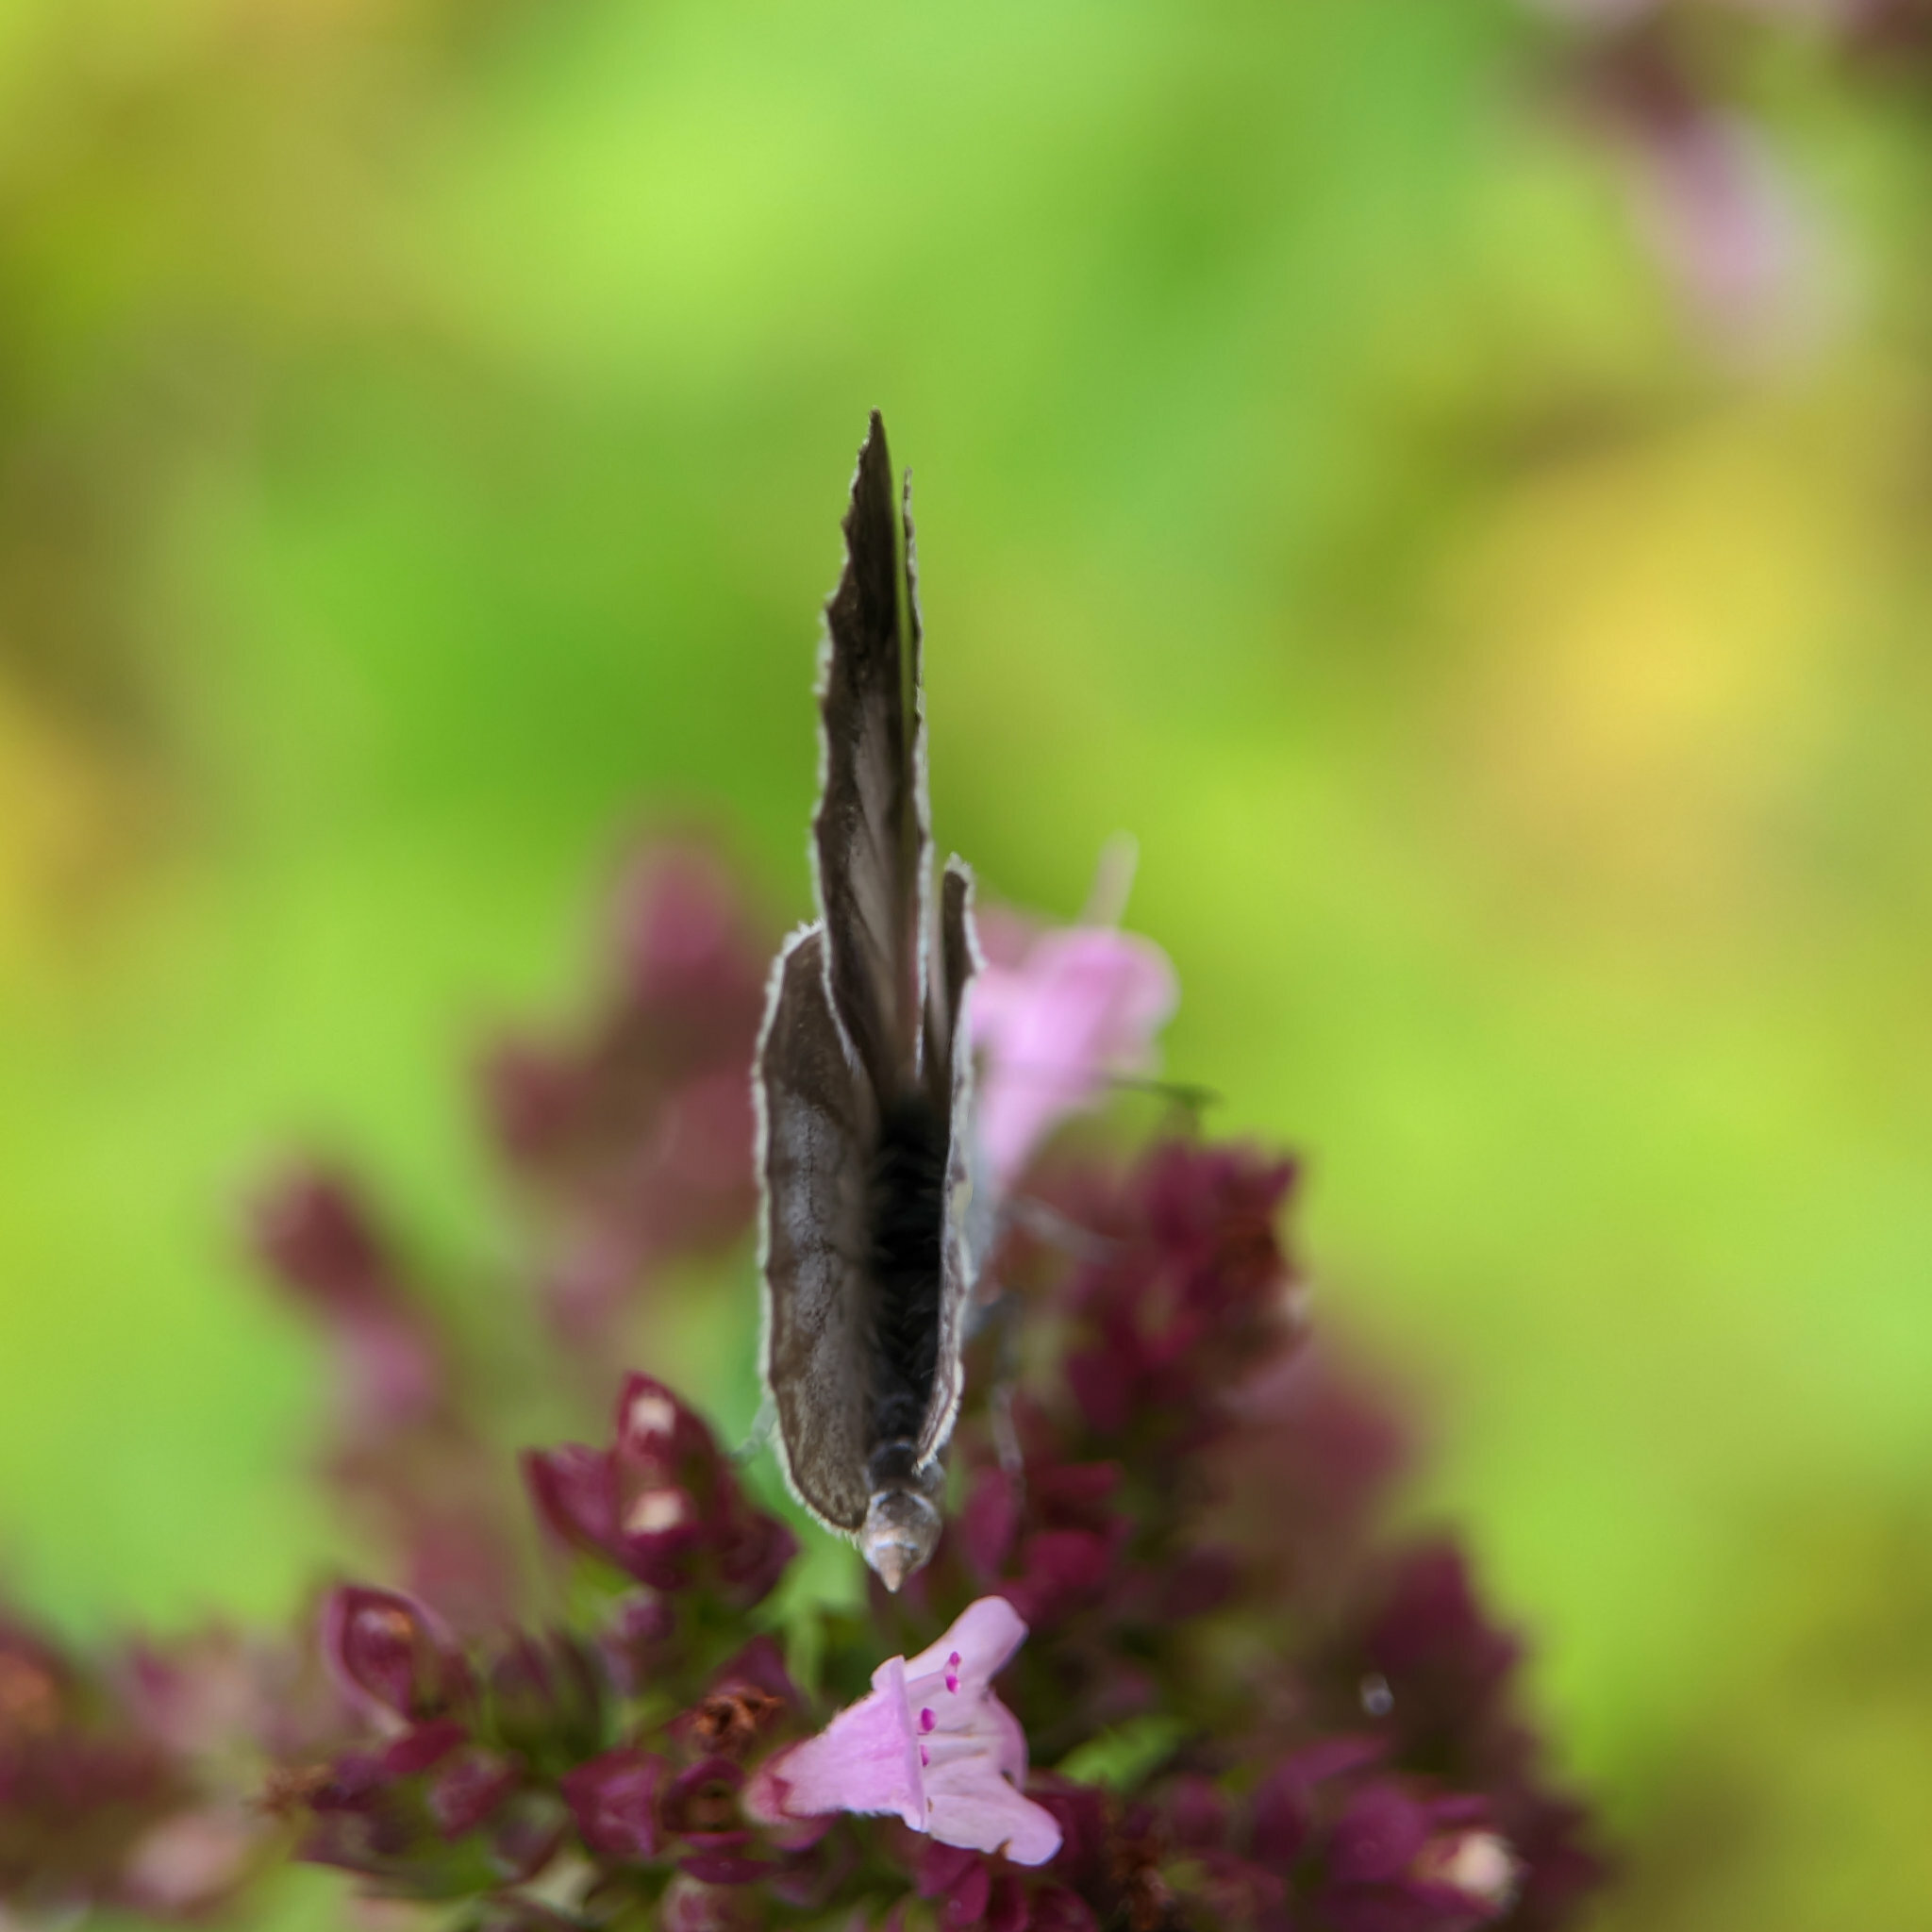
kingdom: Animalia
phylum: Arthropoda
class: Insecta
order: Lepidoptera
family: Lycaenidae
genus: Celastrina
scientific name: Celastrina argiolus
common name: Holly blue
